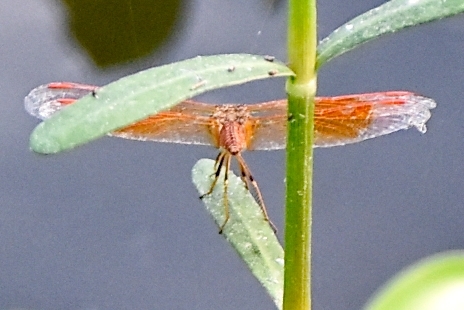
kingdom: Animalia
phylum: Arthropoda
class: Insecta
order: Odonata
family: Libellulidae
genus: Brachythemis
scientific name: Brachythemis contaminata
